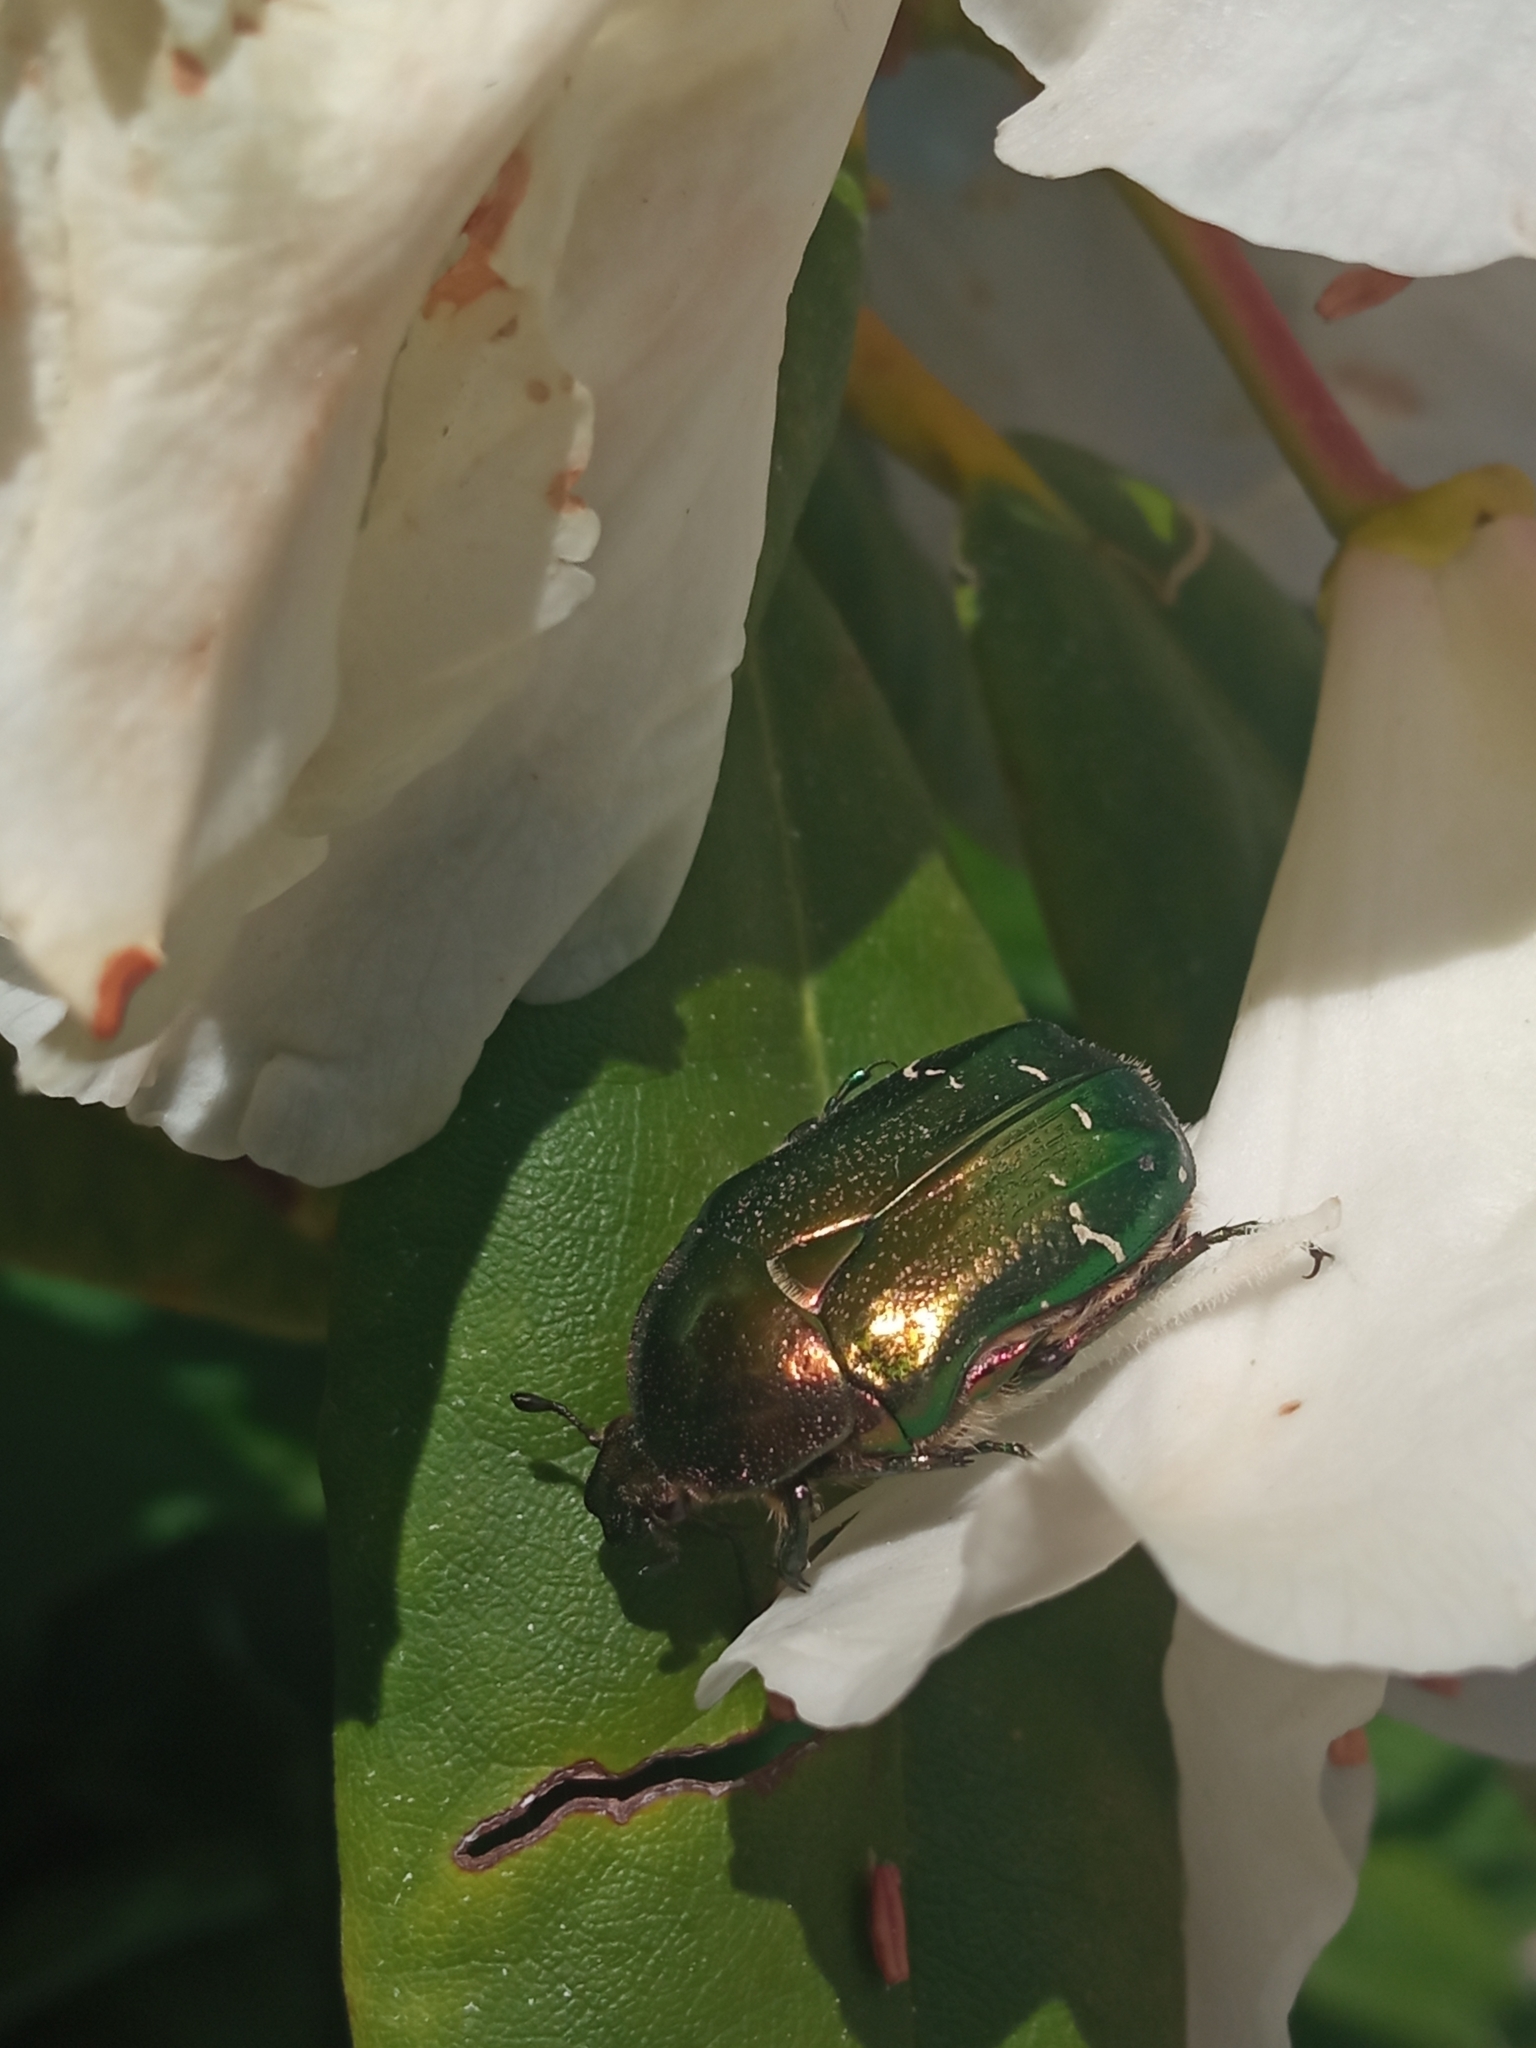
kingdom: Animalia
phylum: Arthropoda
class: Insecta
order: Coleoptera
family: Scarabaeidae
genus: Cetonia
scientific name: Cetonia aurata
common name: Rose chafer
